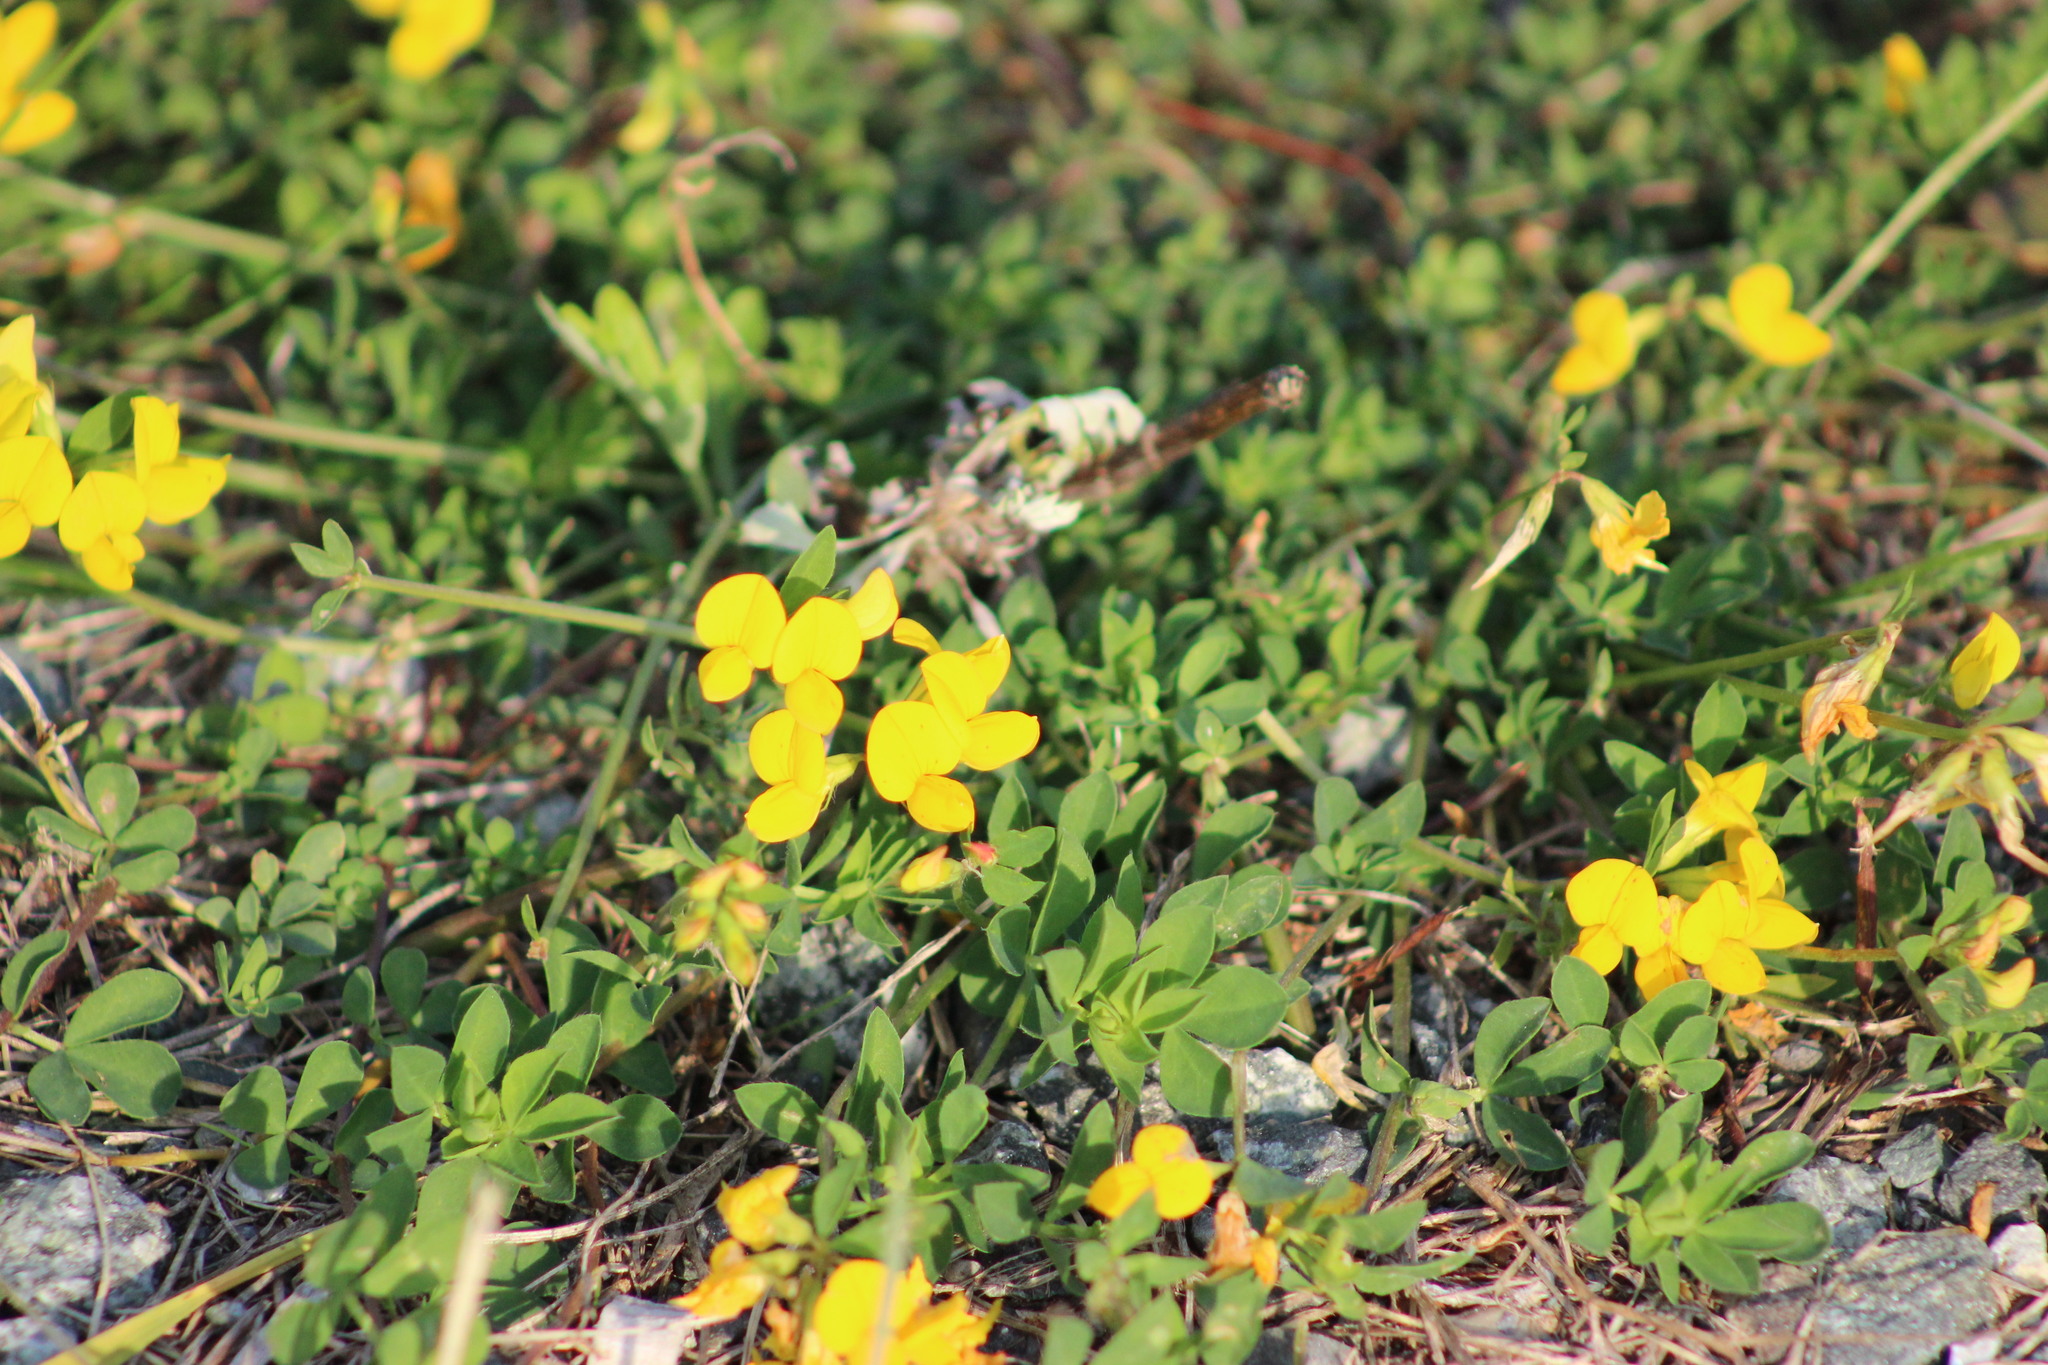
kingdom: Plantae
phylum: Tracheophyta
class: Magnoliopsida
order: Fabales
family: Fabaceae
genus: Lotus
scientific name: Lotus corniculatus
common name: Common bird's-foot-trefoil
